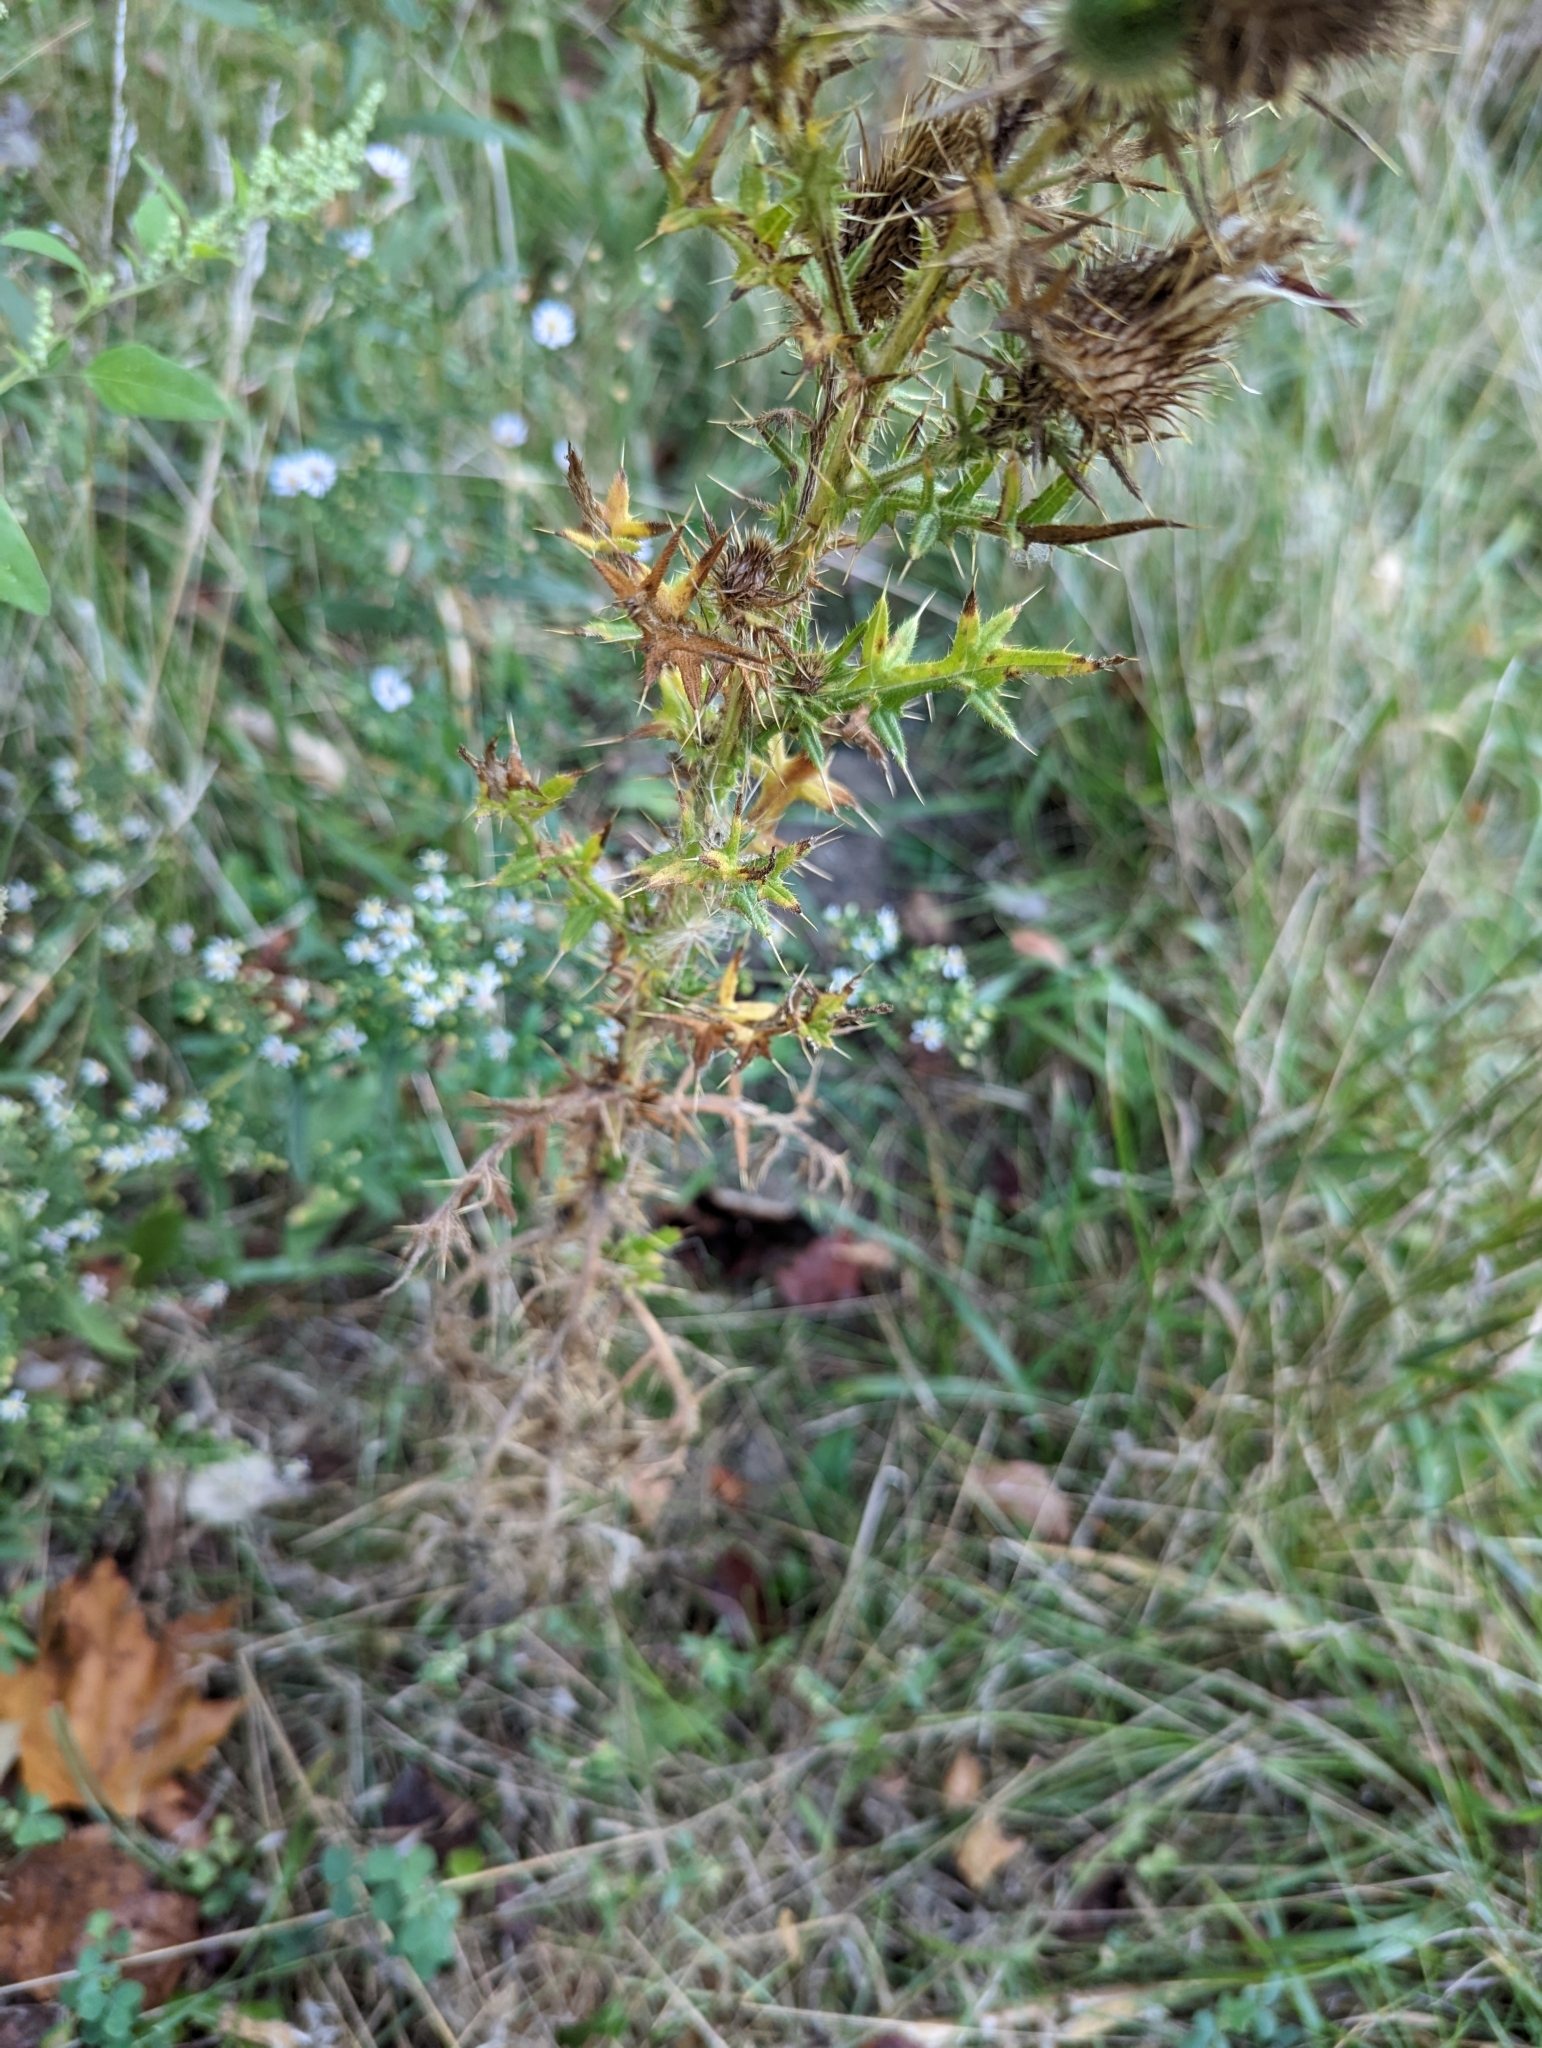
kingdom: Plantae
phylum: Tracheophyta
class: Magnoliopsida
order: Asterales
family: Asteraceae
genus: Cirsium
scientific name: Cirsium vulgare
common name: Bull thistle
